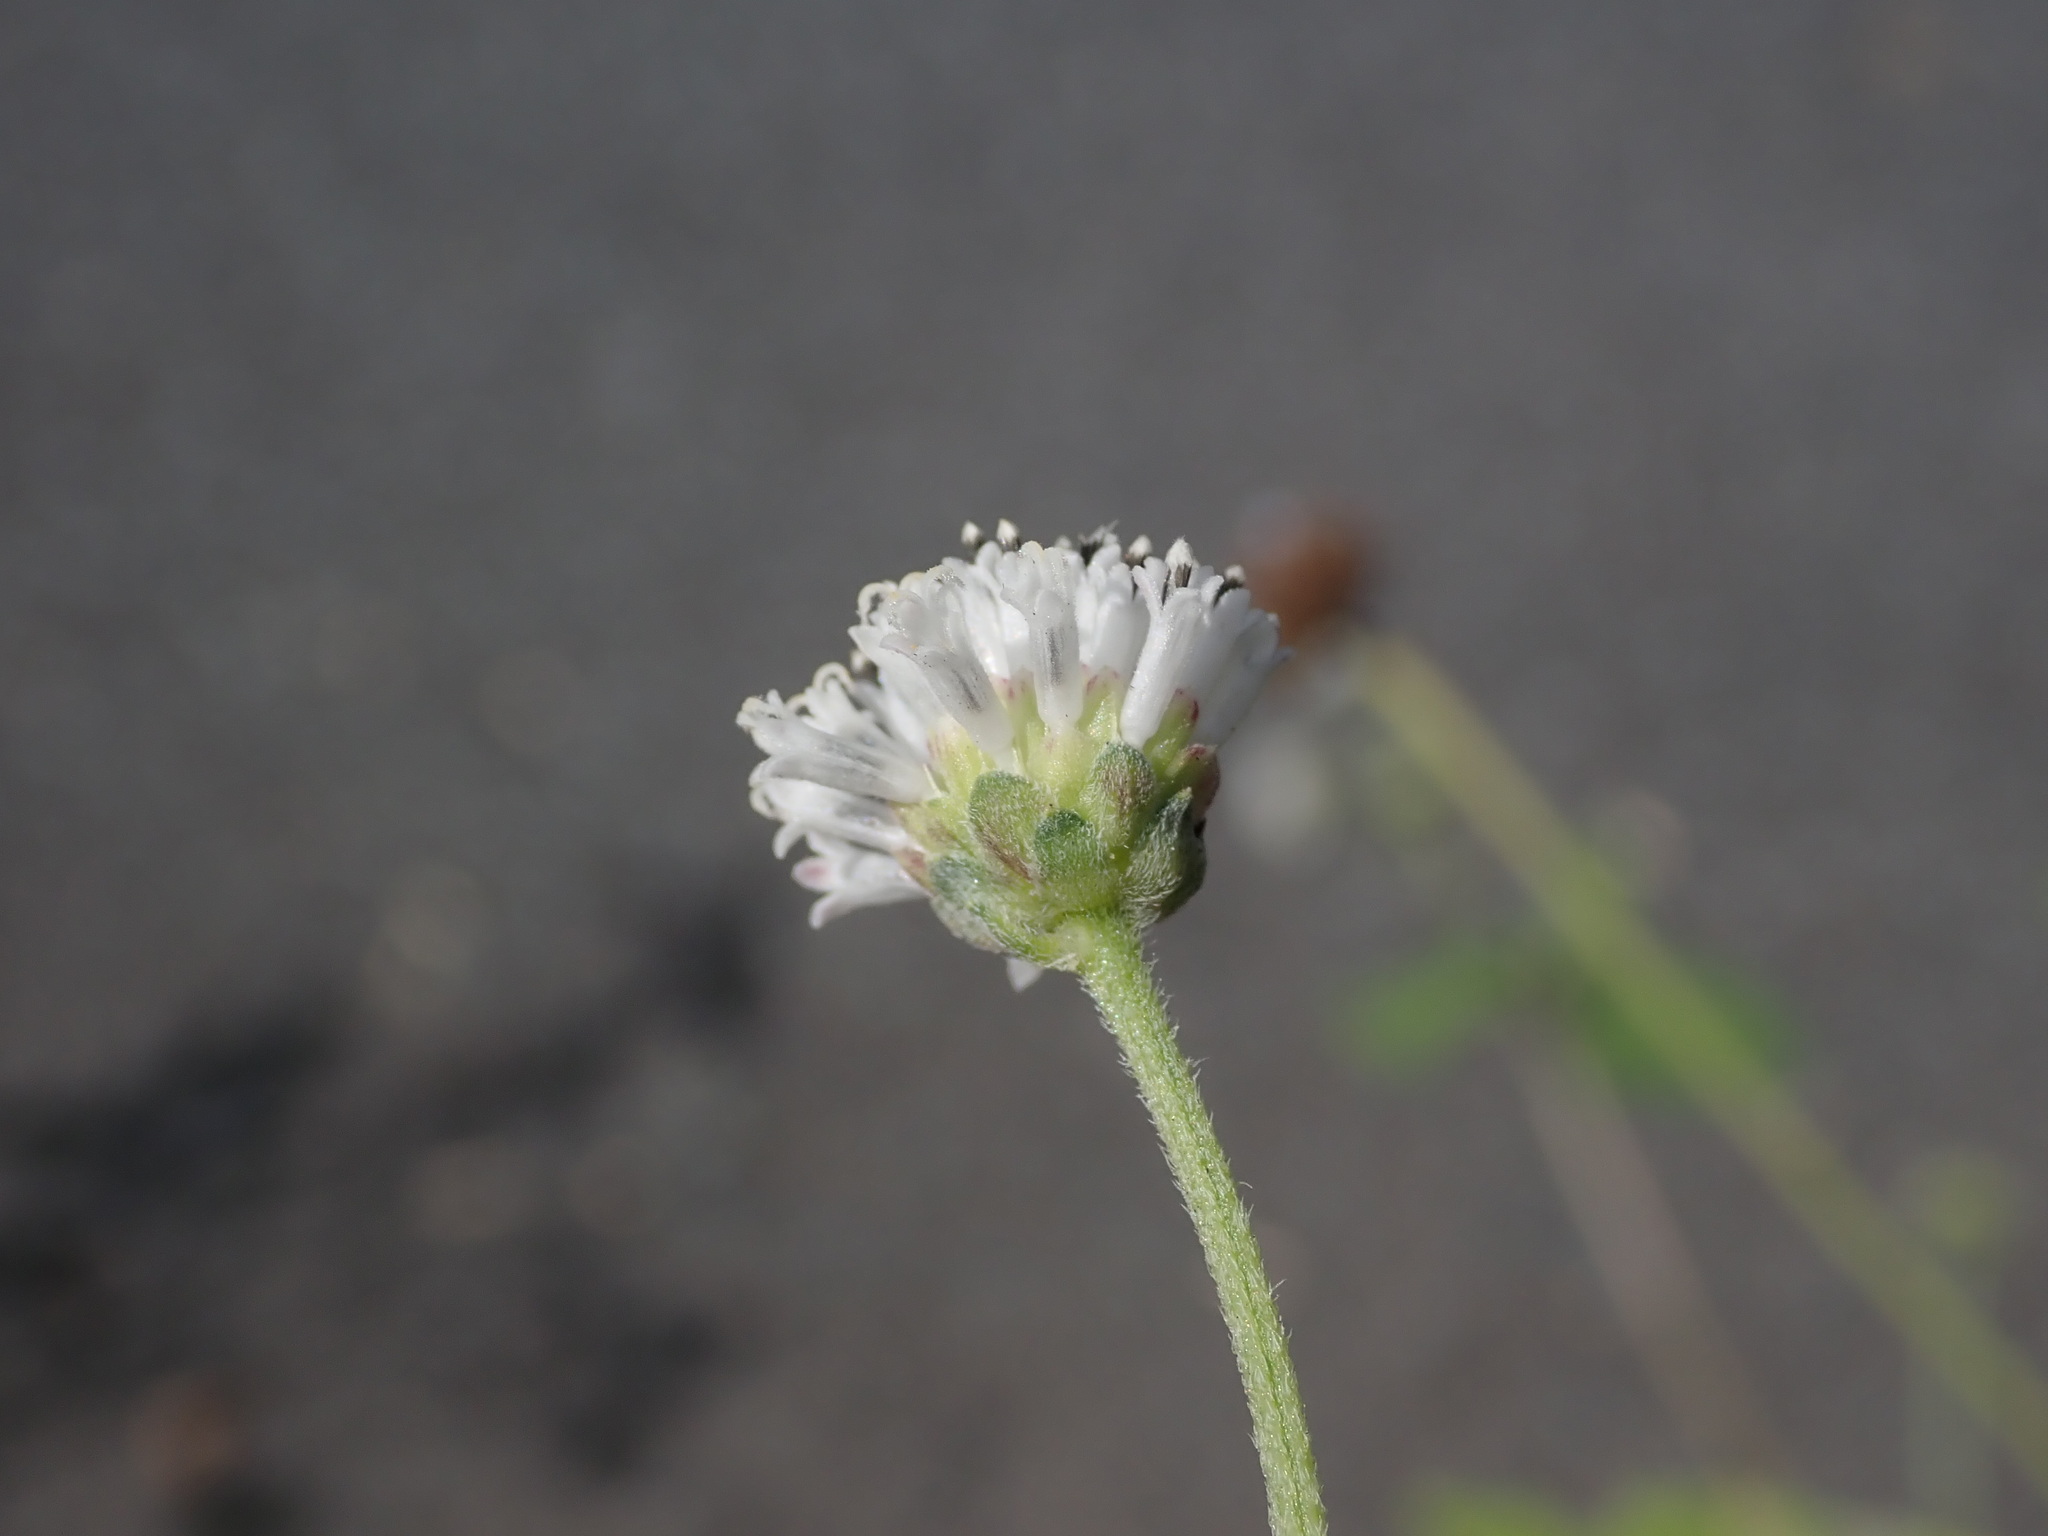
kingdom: Plantae
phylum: Tracheophyta
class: Magnoliopsida
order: Asterales
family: Asteraceae
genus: Melanthera
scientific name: Melanthera nivea
